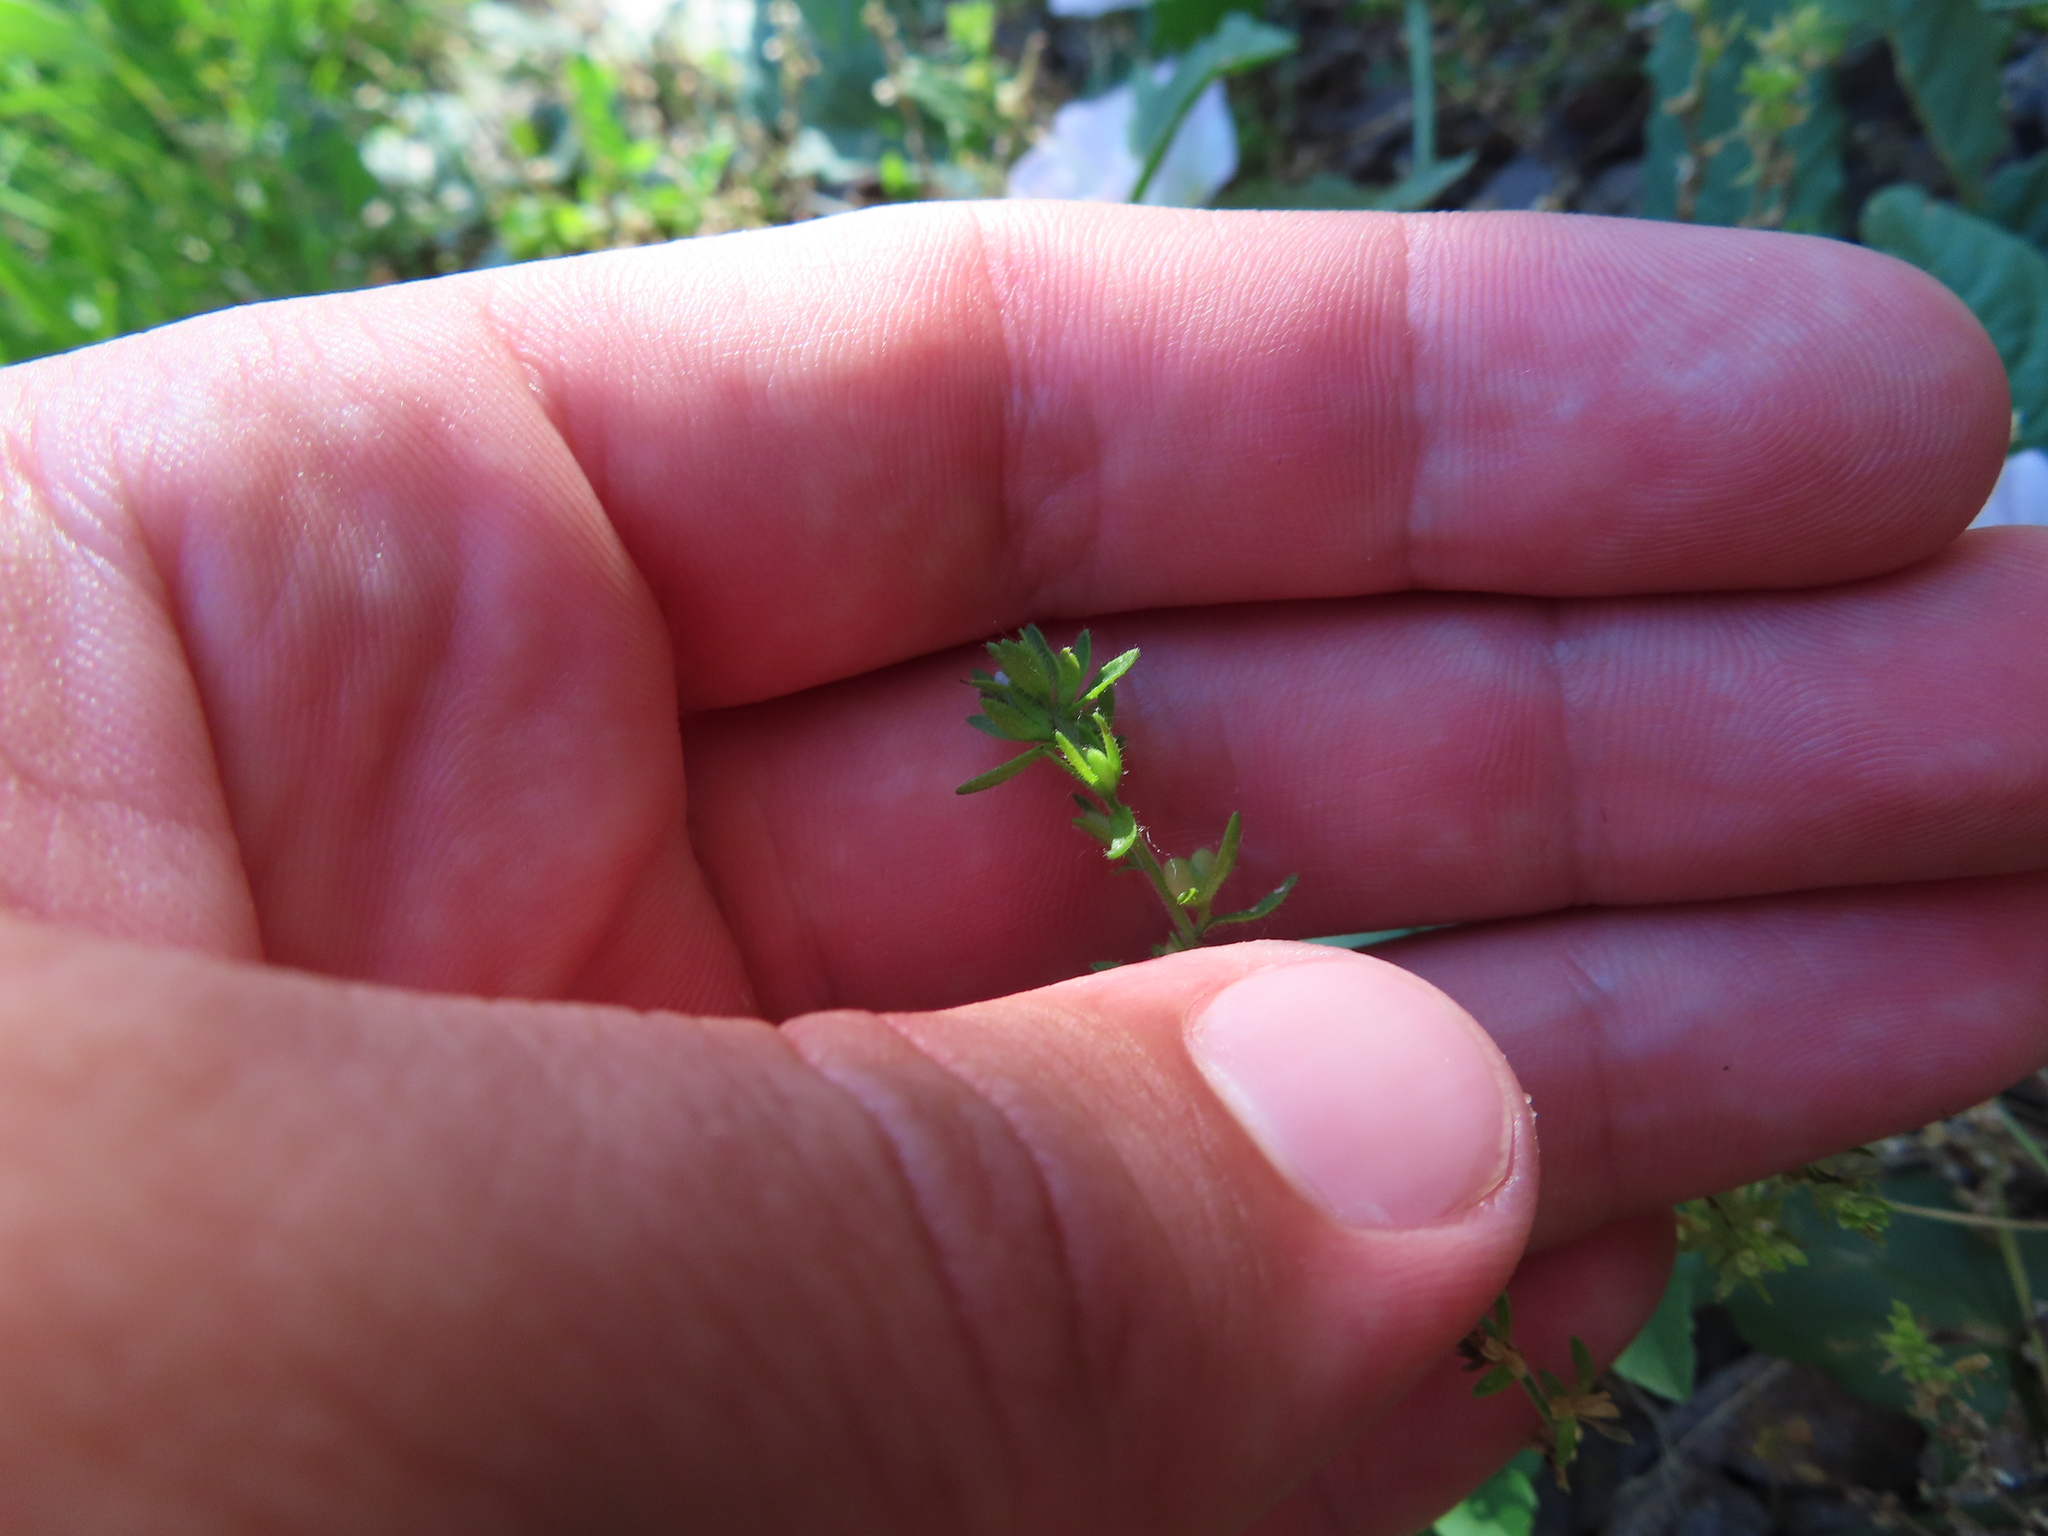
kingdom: Plantae
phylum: Tracheophyta
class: Magnoliopsida
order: Lamiales
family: Plantaginaceae
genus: Veronica
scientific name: Veronica arvensis
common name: Corn speedwell
